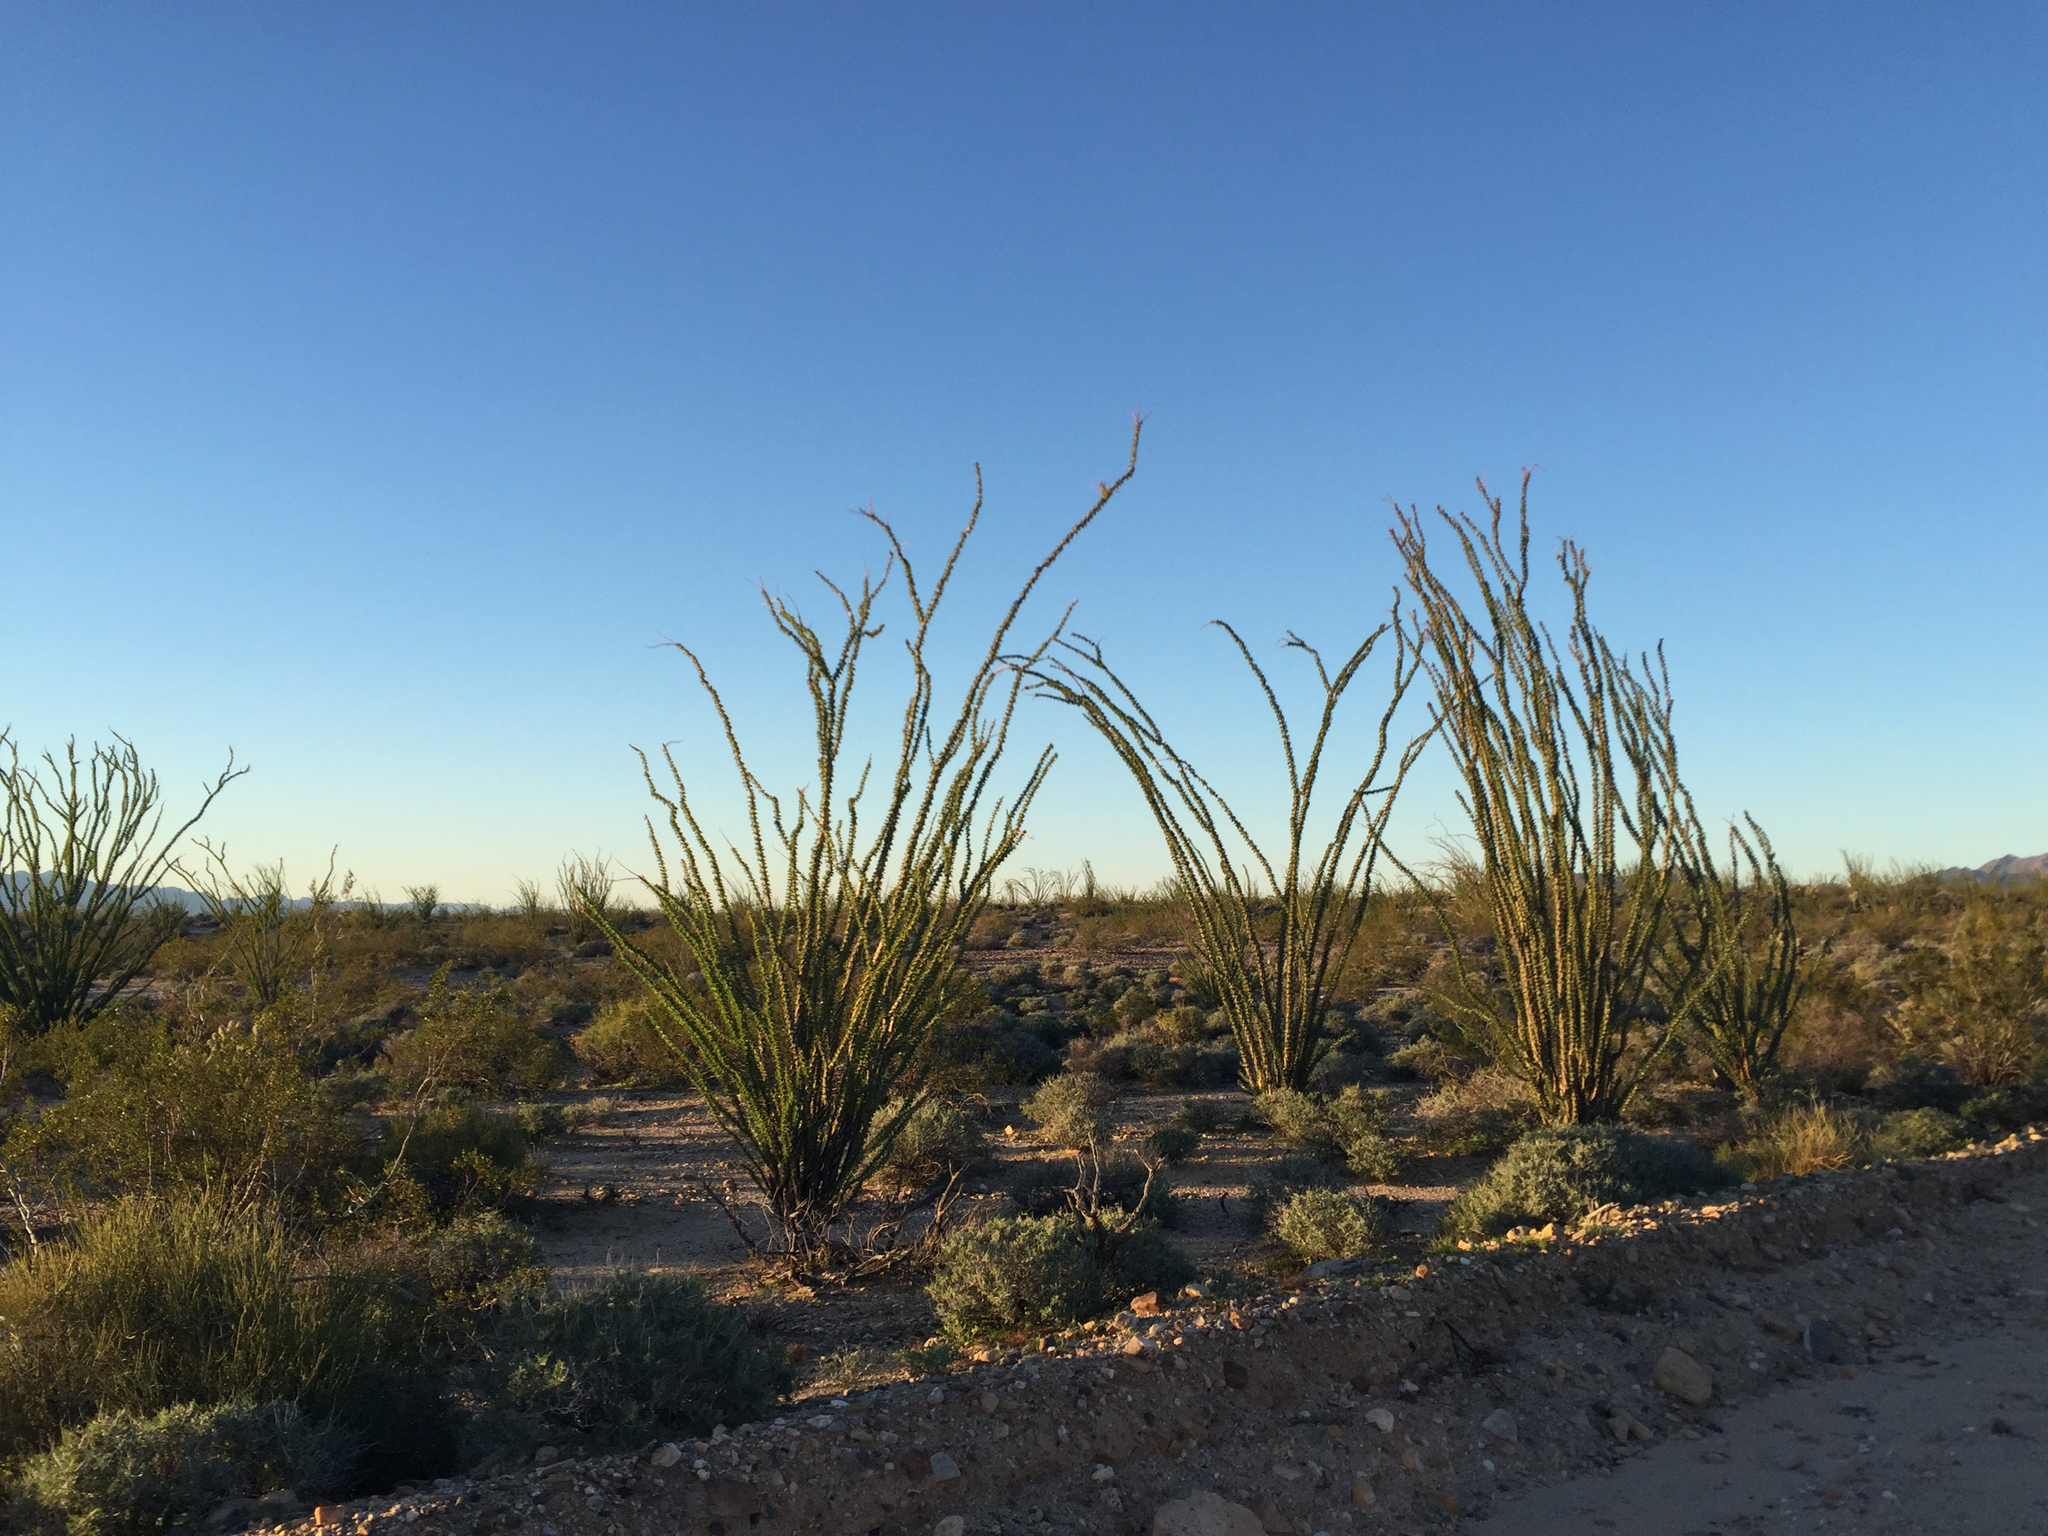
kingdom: Plantae
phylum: Tracheophyta
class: Magnoliopsida
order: Ericales
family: Fouquieriaceae
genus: Fouquieria
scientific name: Fouquieria splendens
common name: Vine-cactus
